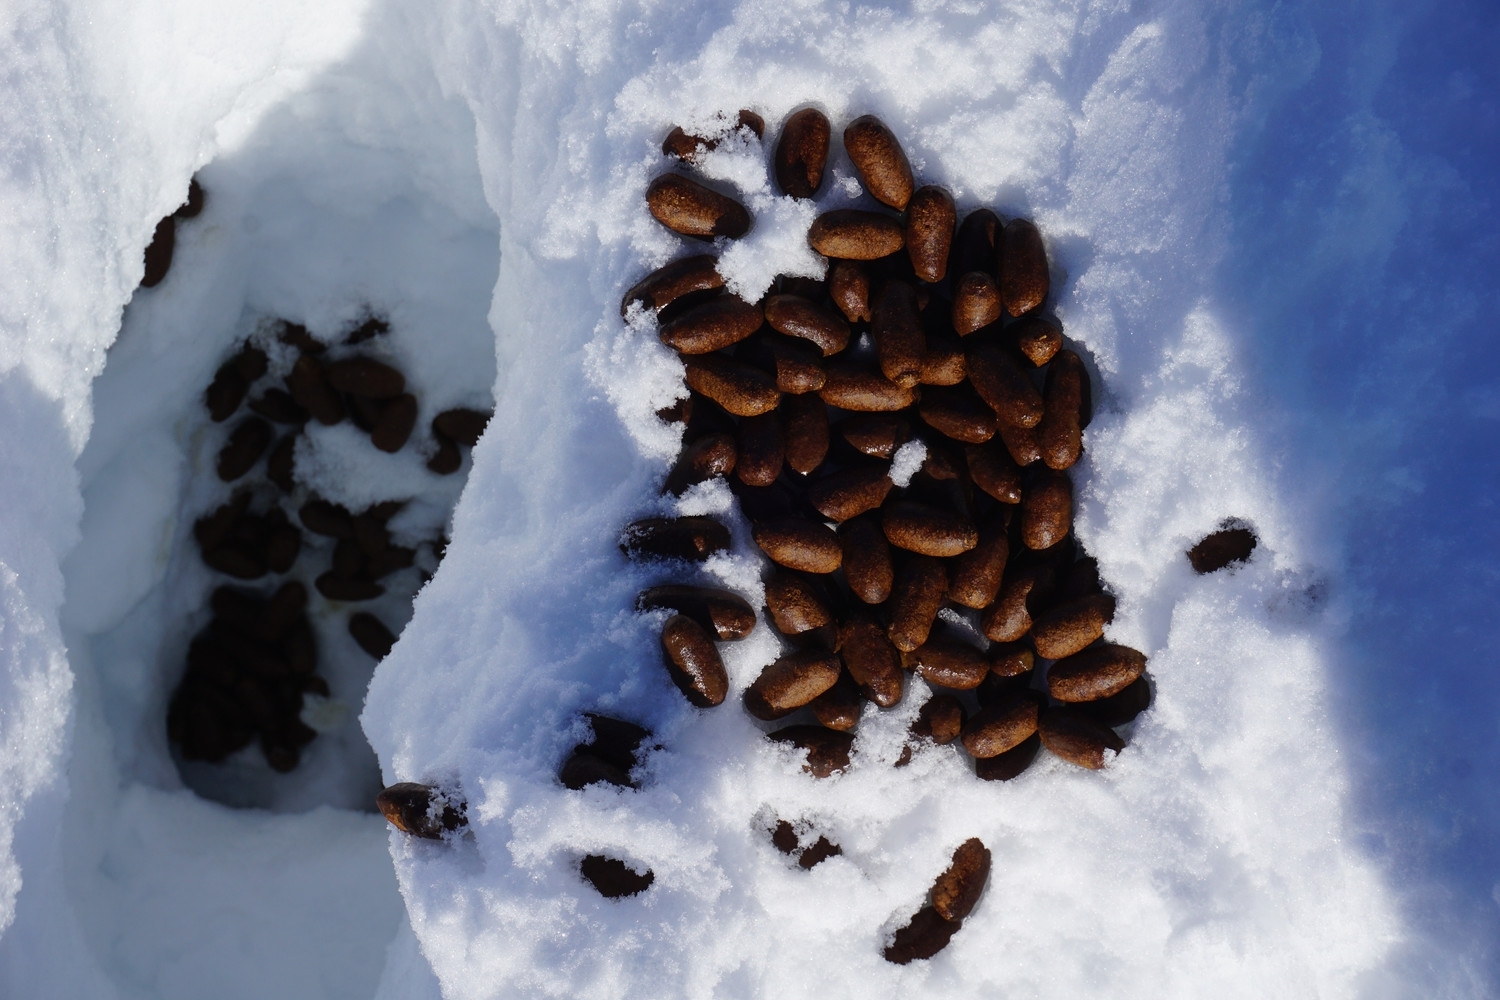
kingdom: Animalia
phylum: Chordata
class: Mammalia
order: Artiodactyla
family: Cervidae
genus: Alces
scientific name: Alces alces
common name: Moose
